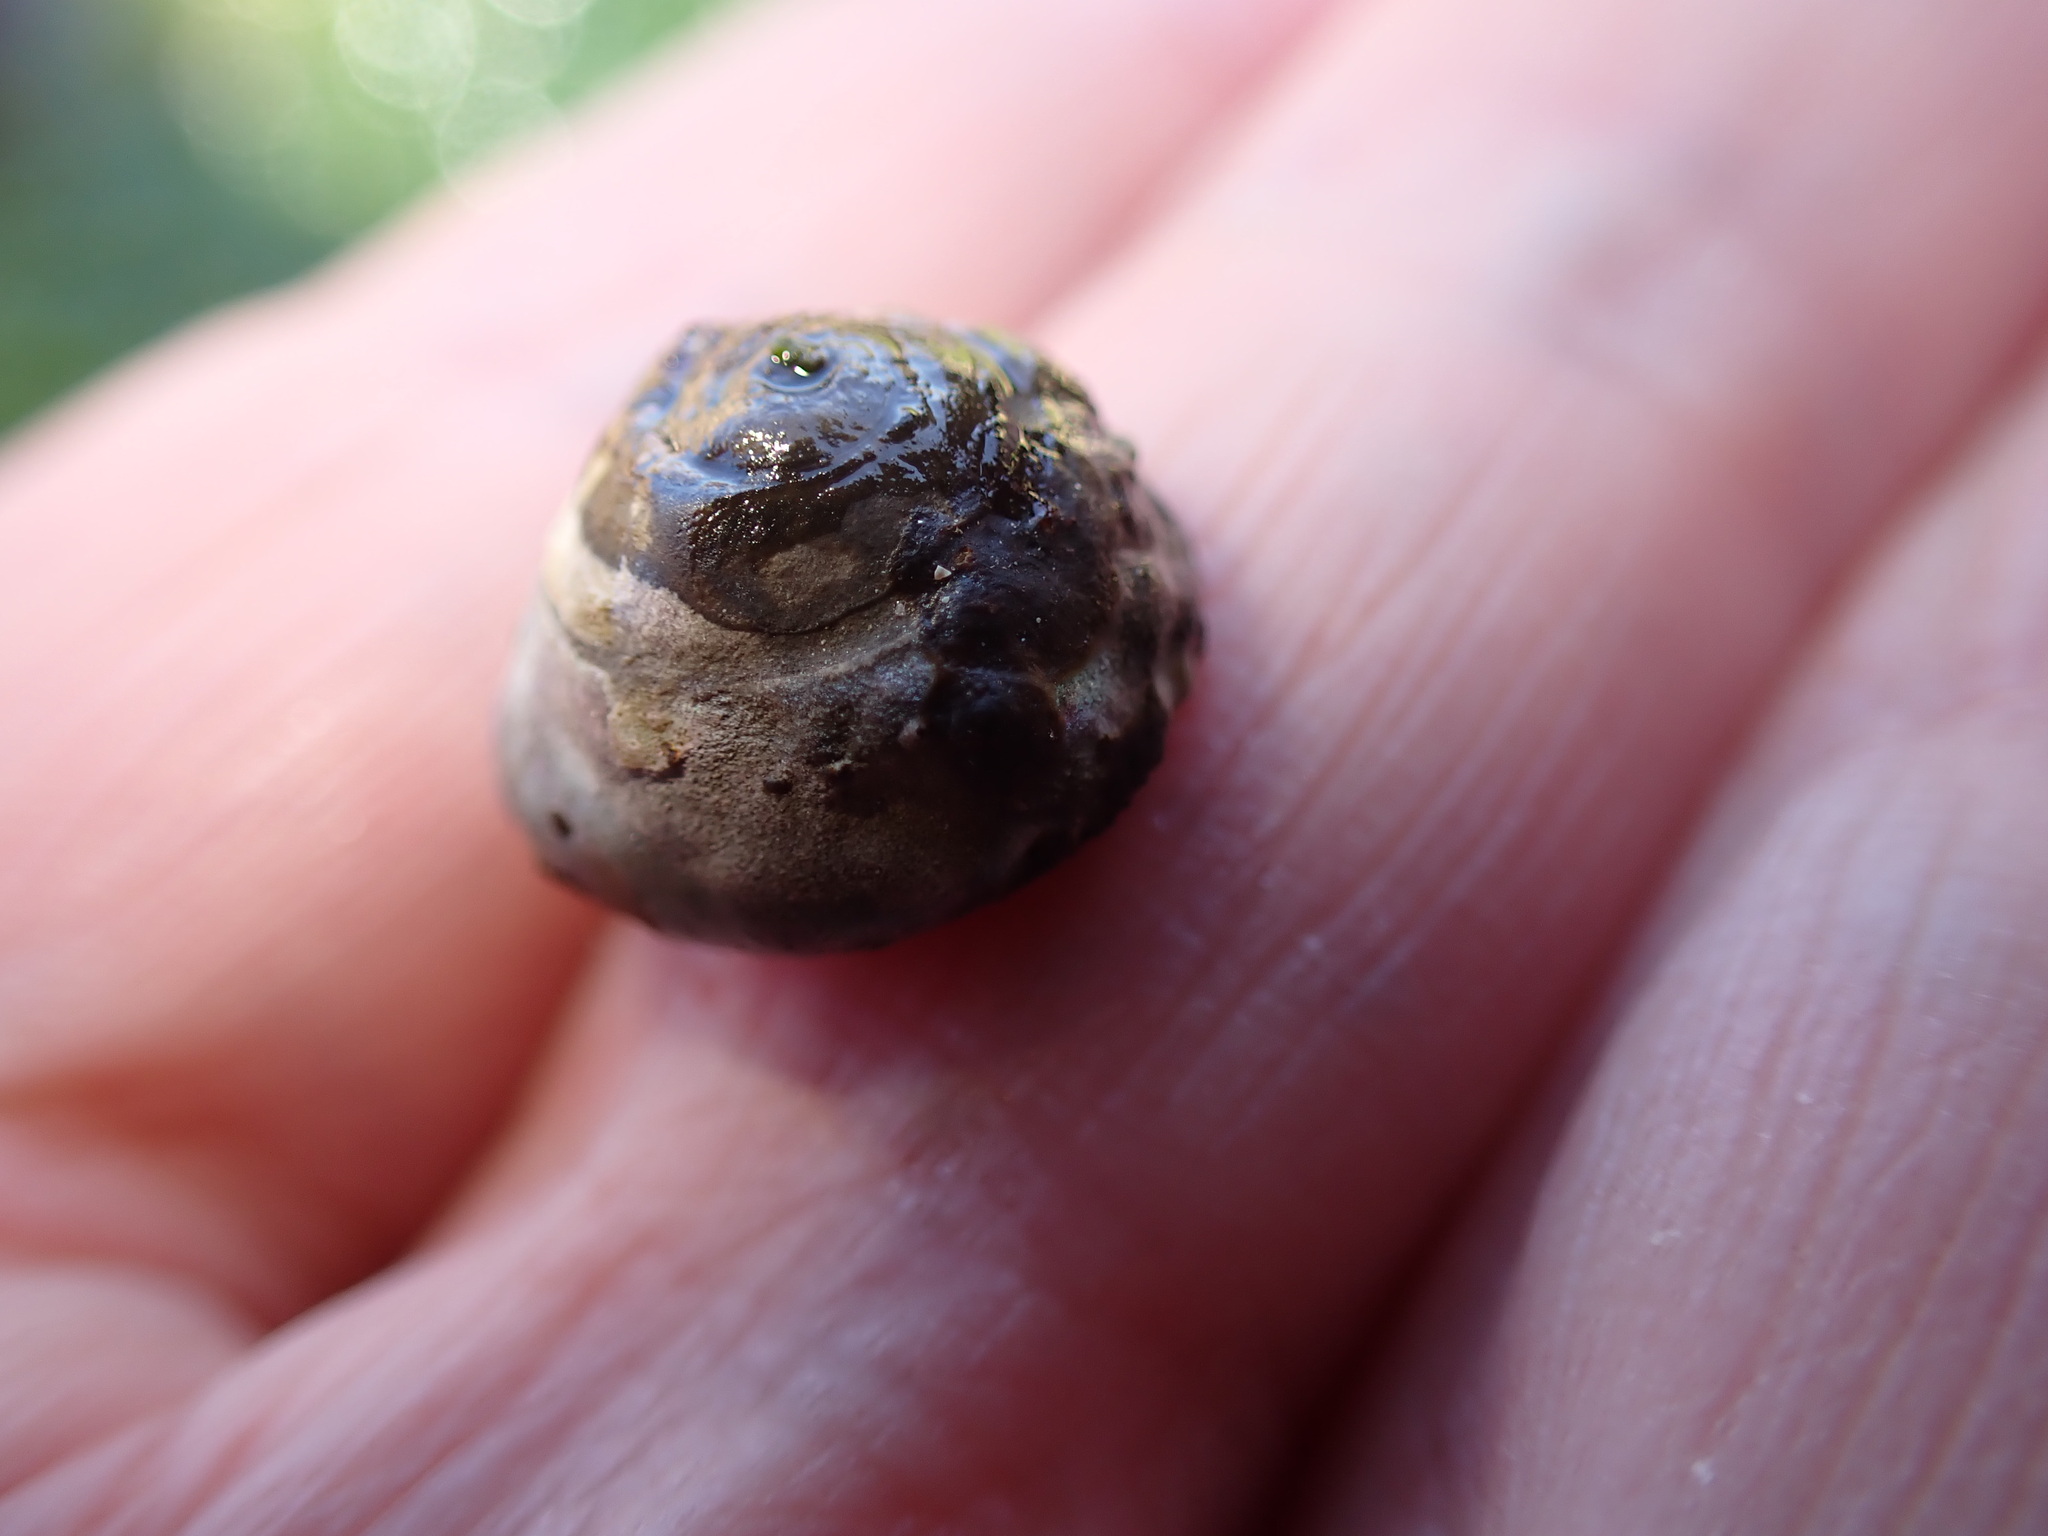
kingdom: Animalia
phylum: Mollusca
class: Gastropoda
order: Trochida
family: Trochidae
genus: Steromphala
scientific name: Steromphala umbilicalis
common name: Flat top shell
